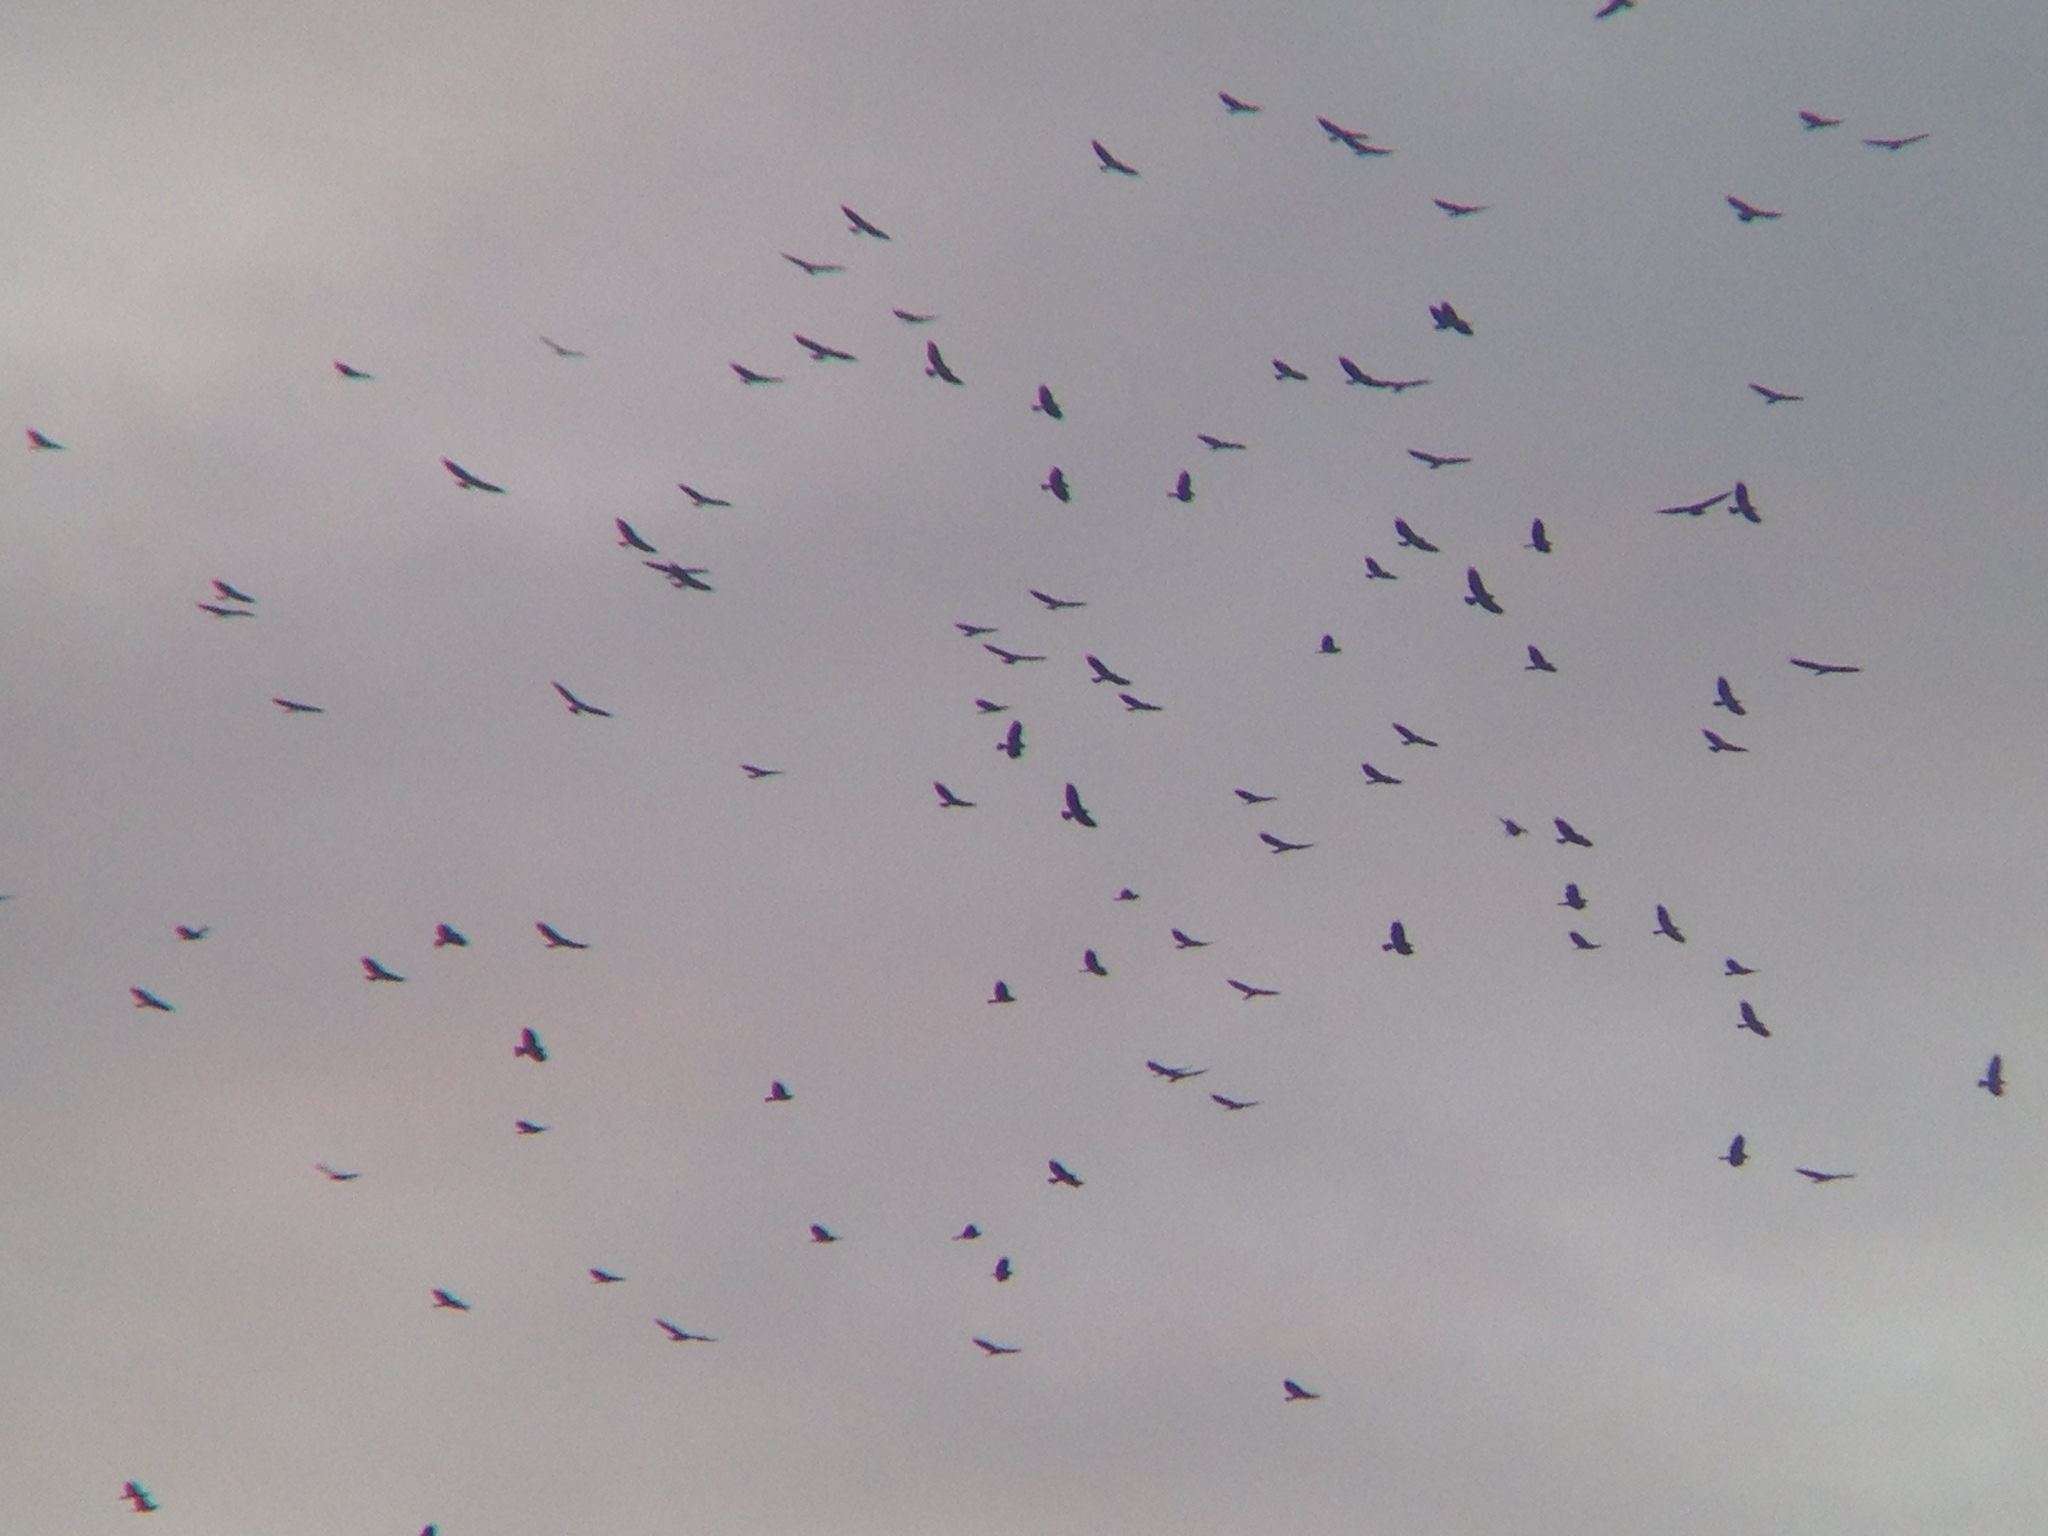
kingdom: Animalia
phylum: Chordata
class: Aves
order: Accipitriformes
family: Accipitridae
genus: Buteo
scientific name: Buteo swainsoni
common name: Swainson's hawk
